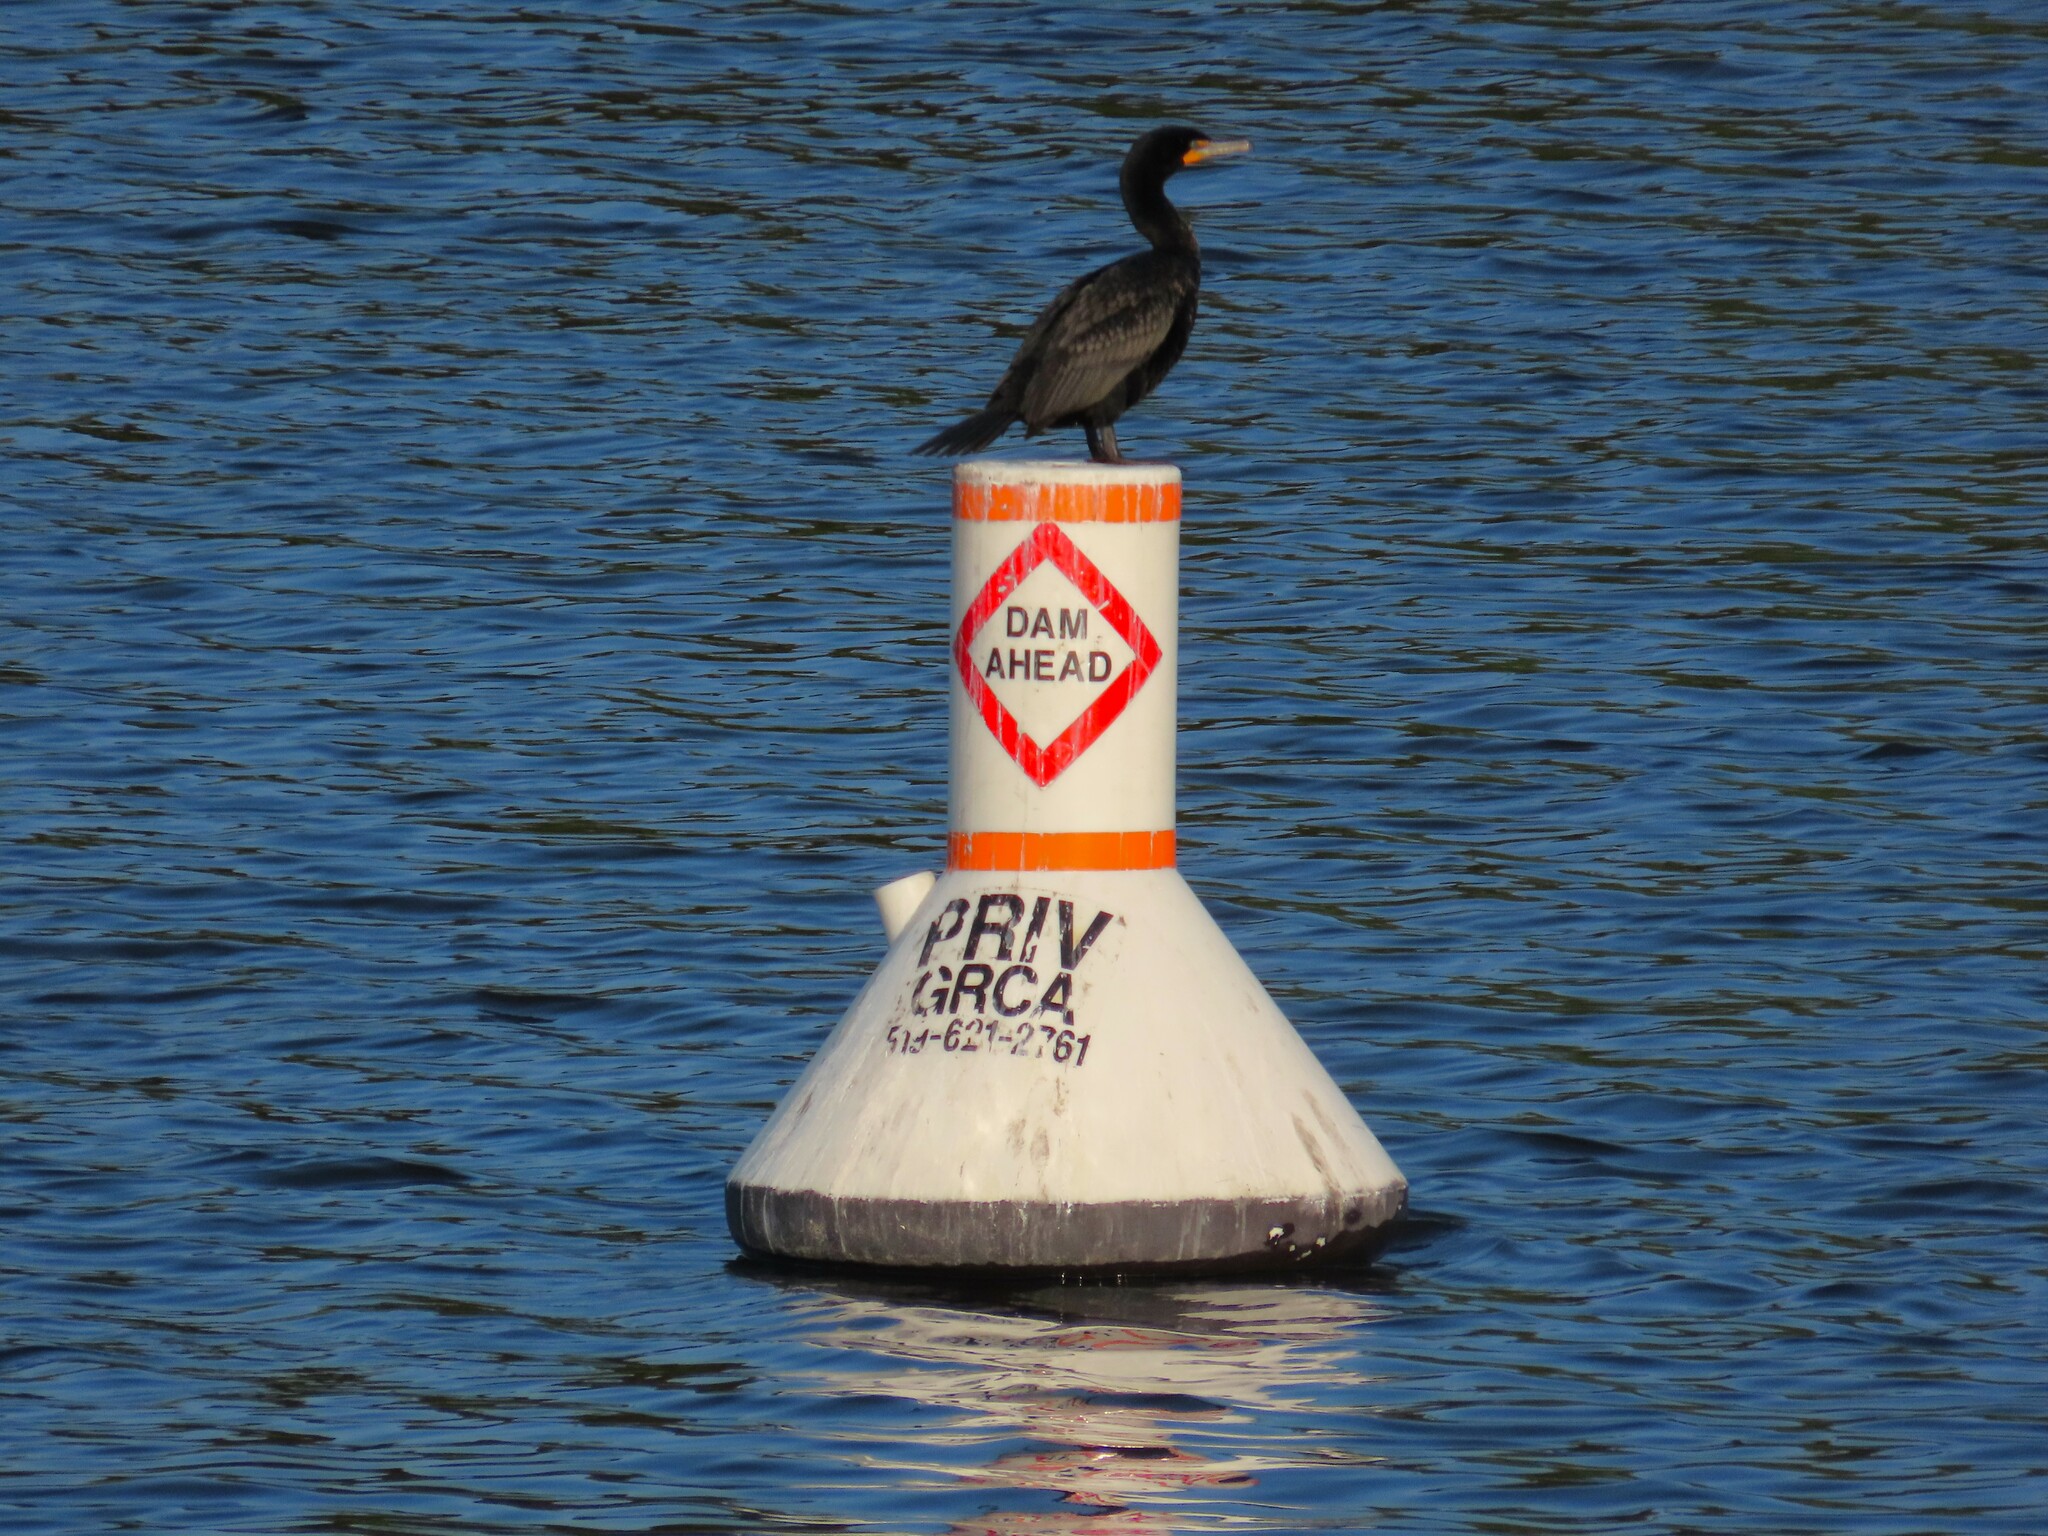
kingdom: Animalia
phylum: Chordata
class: Aves
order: Suliformes
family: Phalacrocoracidae
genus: Phalacrocorax
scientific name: Phalacrocorax auritus
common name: Double-crested cormorant
